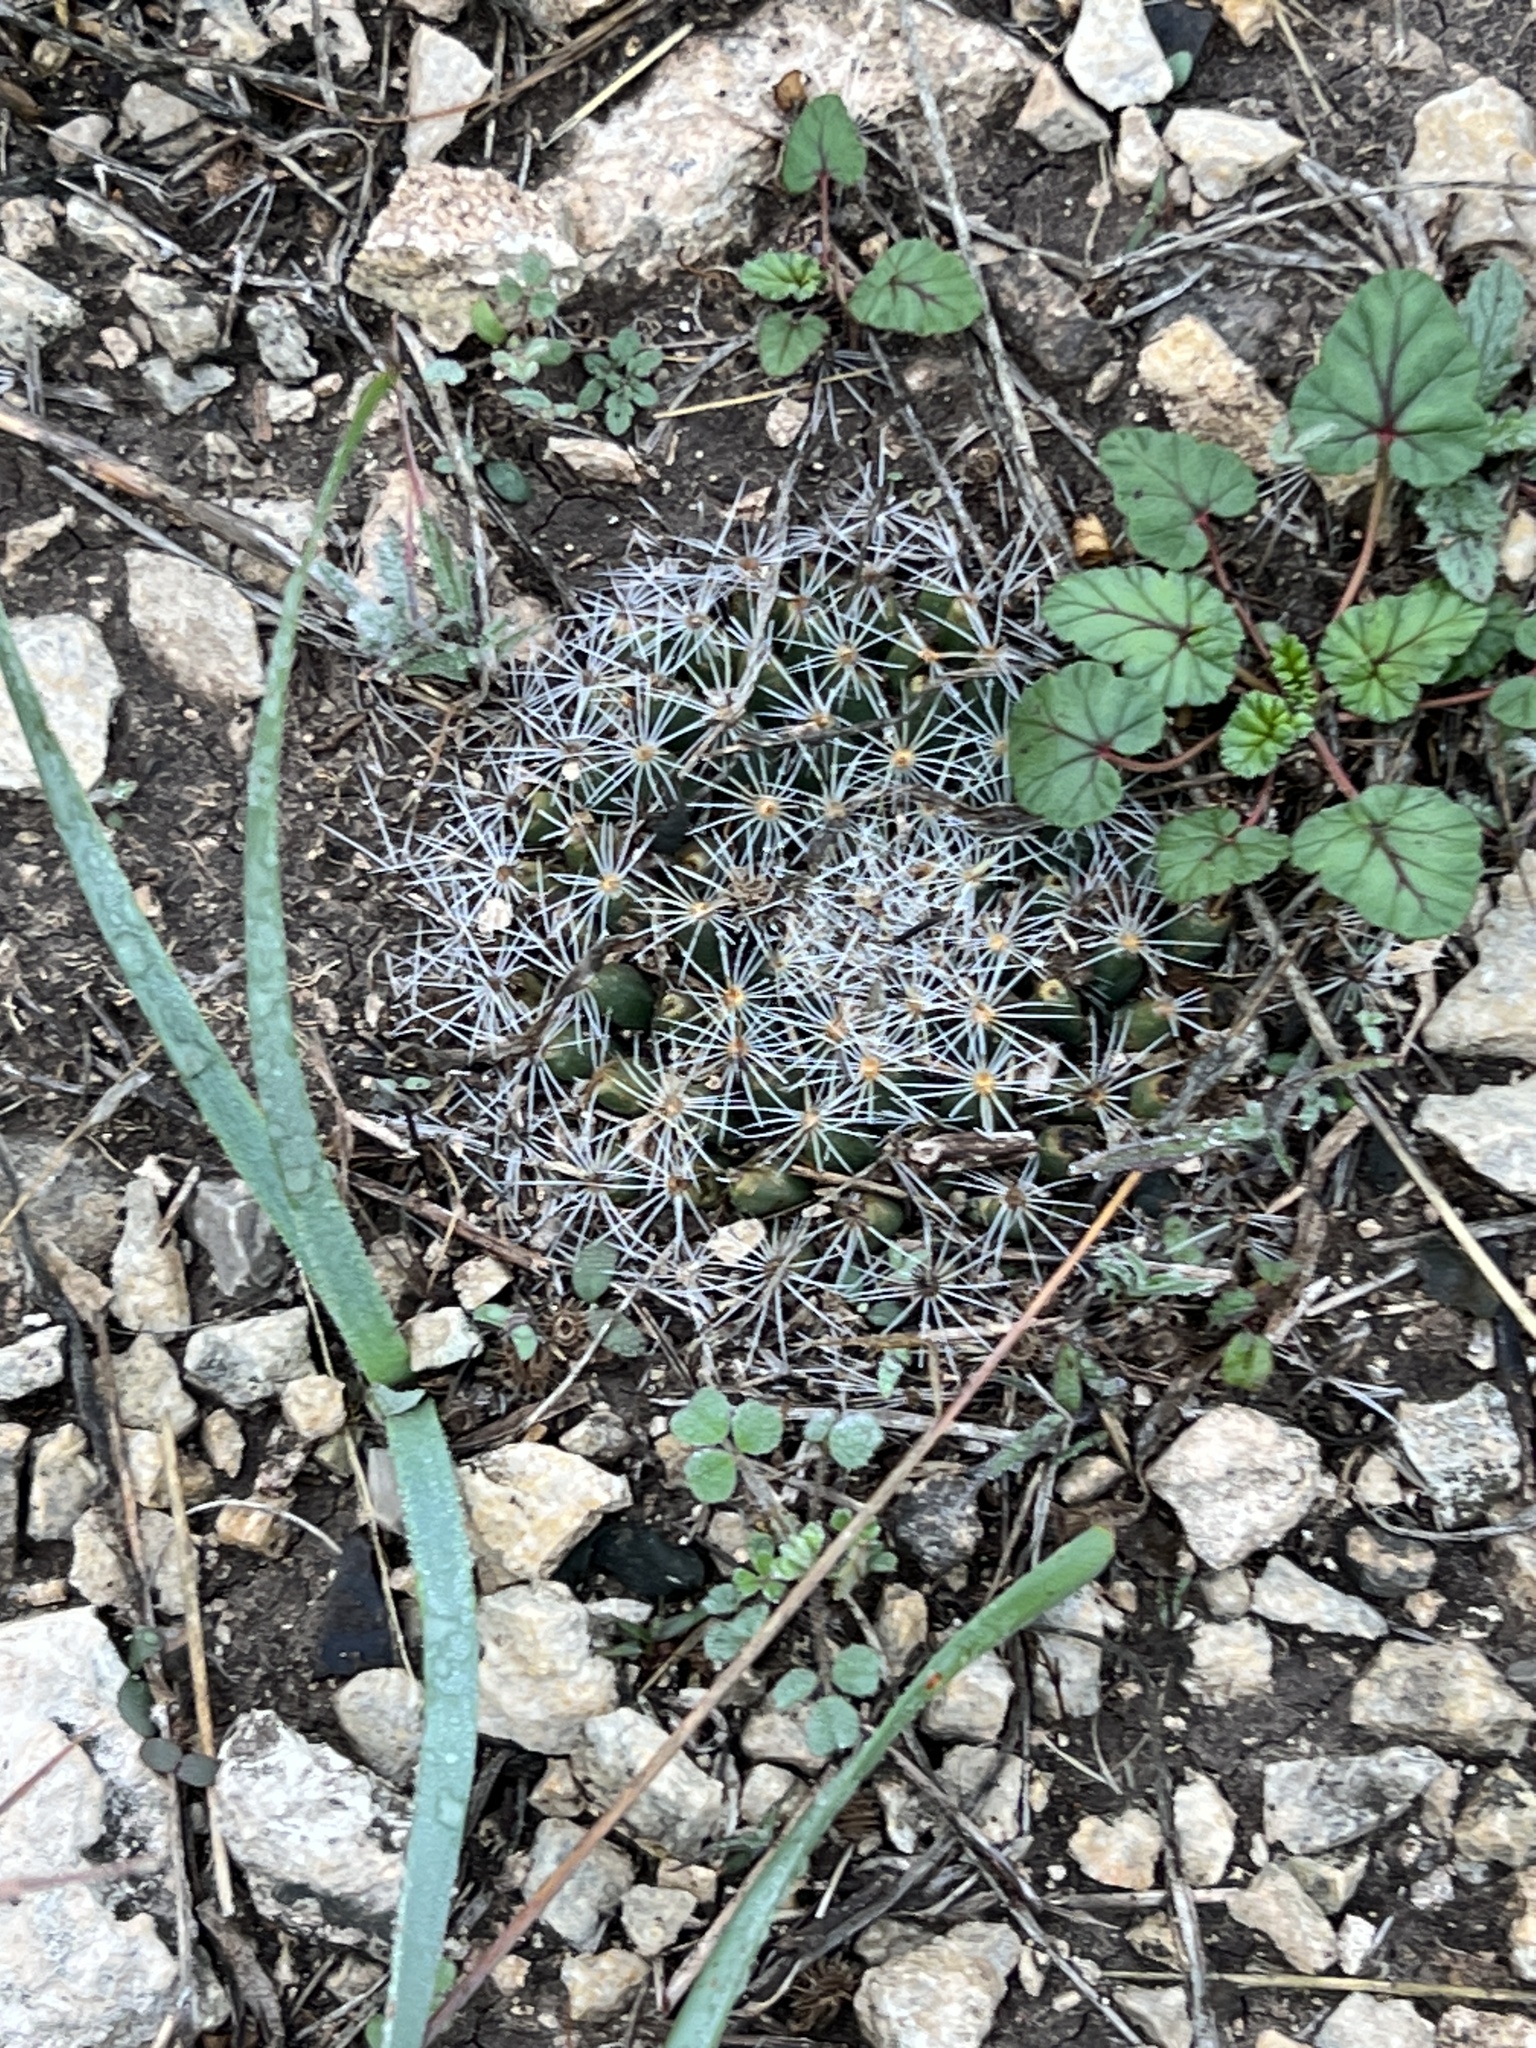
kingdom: Plantae
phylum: Tracheophyta
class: Magnoliopsida
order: Caryophyllales
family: Cactaceae
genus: Mammillaria
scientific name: Mammillaria heyderi
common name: Little nipple cactus
